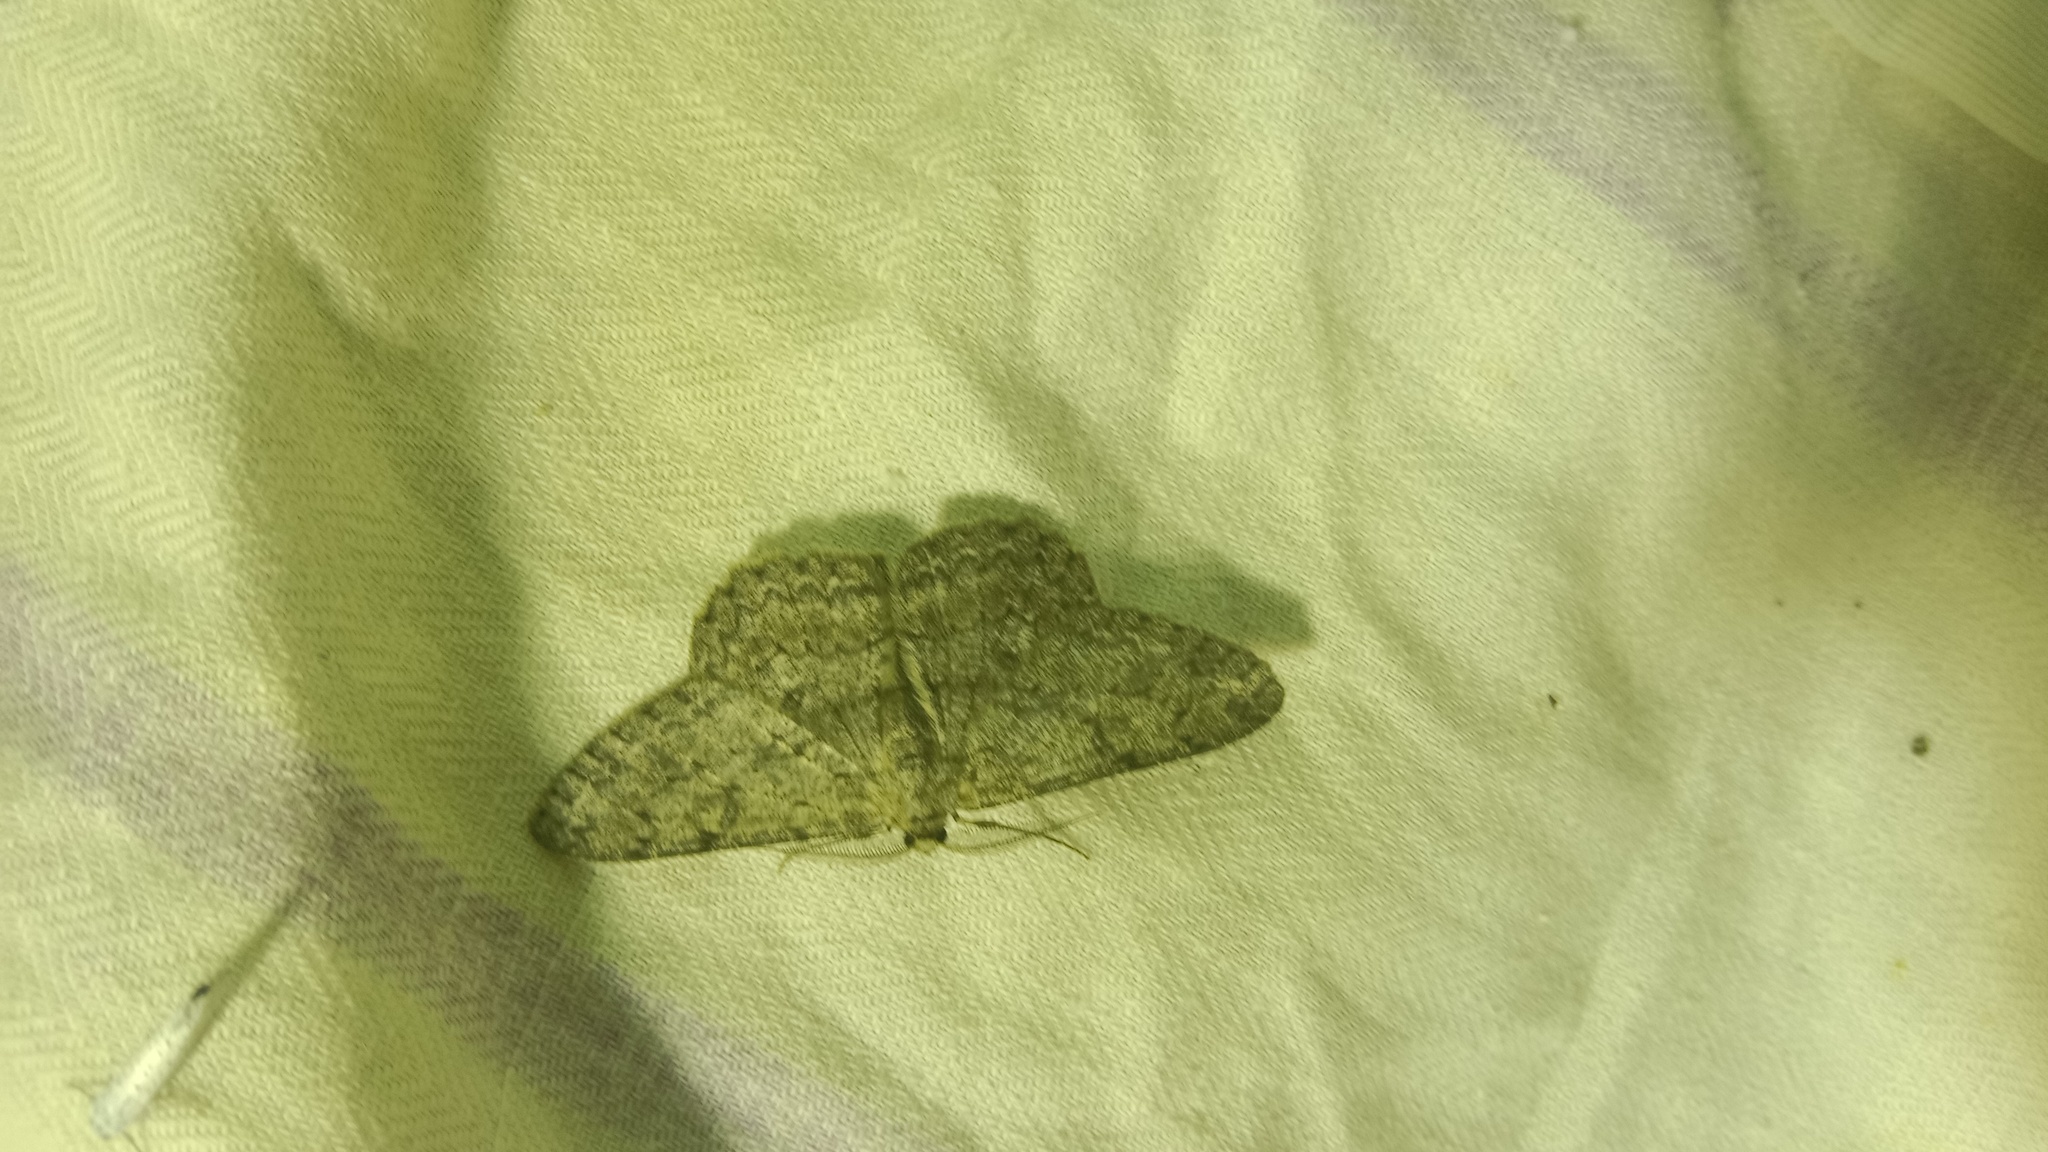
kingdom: Animalia
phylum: Arthropoda
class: Insecta
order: Lepidoptera
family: Geometridae
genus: Hypomecis
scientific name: Hypomecis punctinalis
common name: Pale oak beauty
